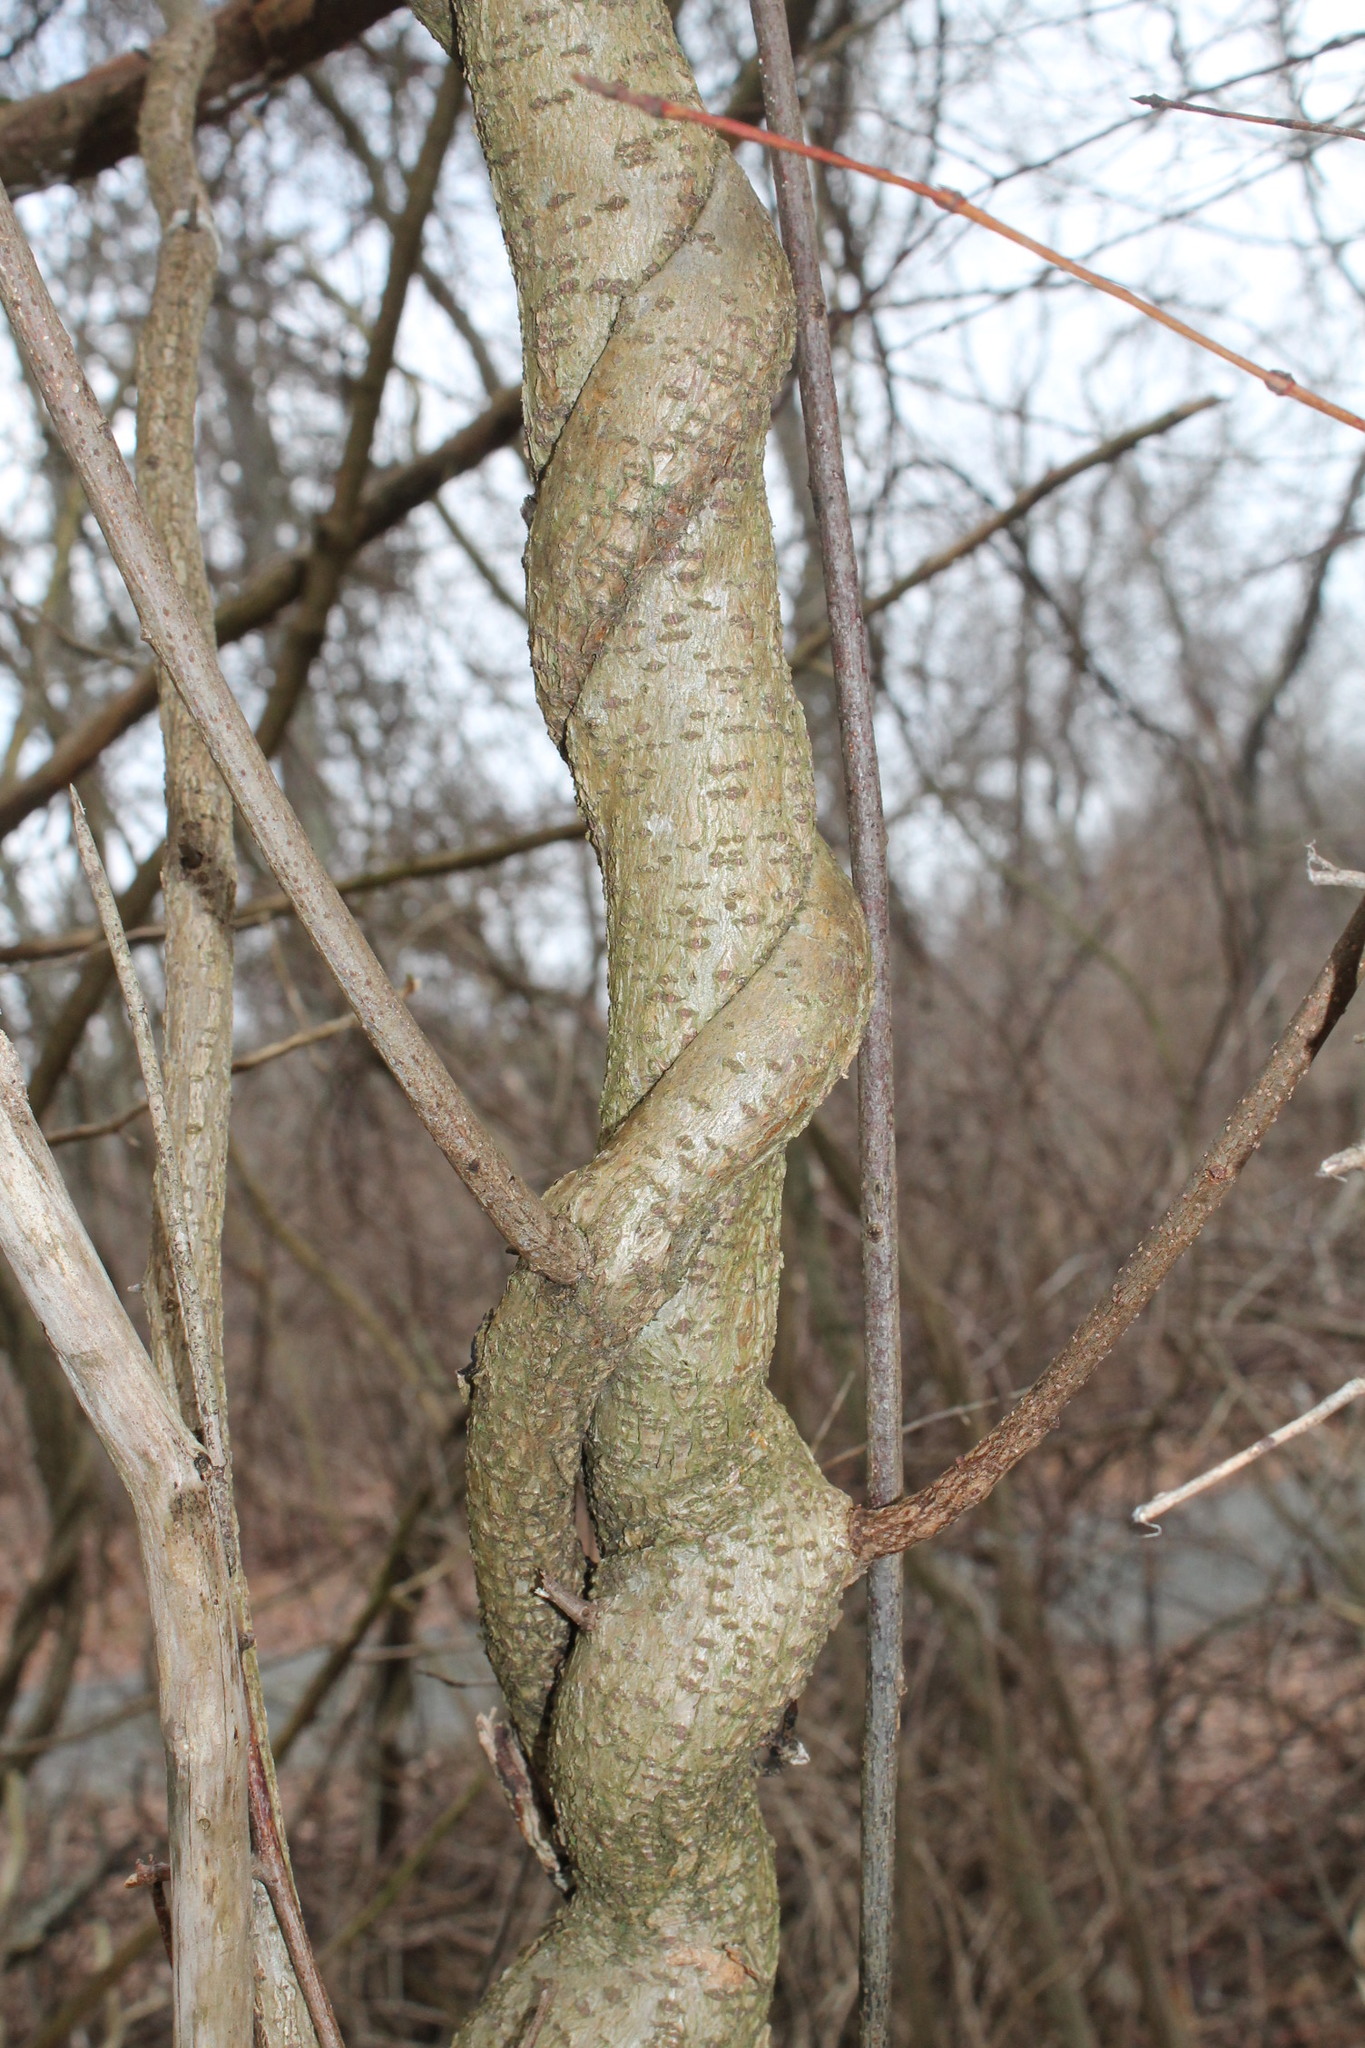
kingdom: Plantae
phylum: Tracheophyta
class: Magnoliopsida
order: Celastrales
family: Celastraceae
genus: Celastrus
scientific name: Celastrus orbiculatus
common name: Oriental bittersweet
